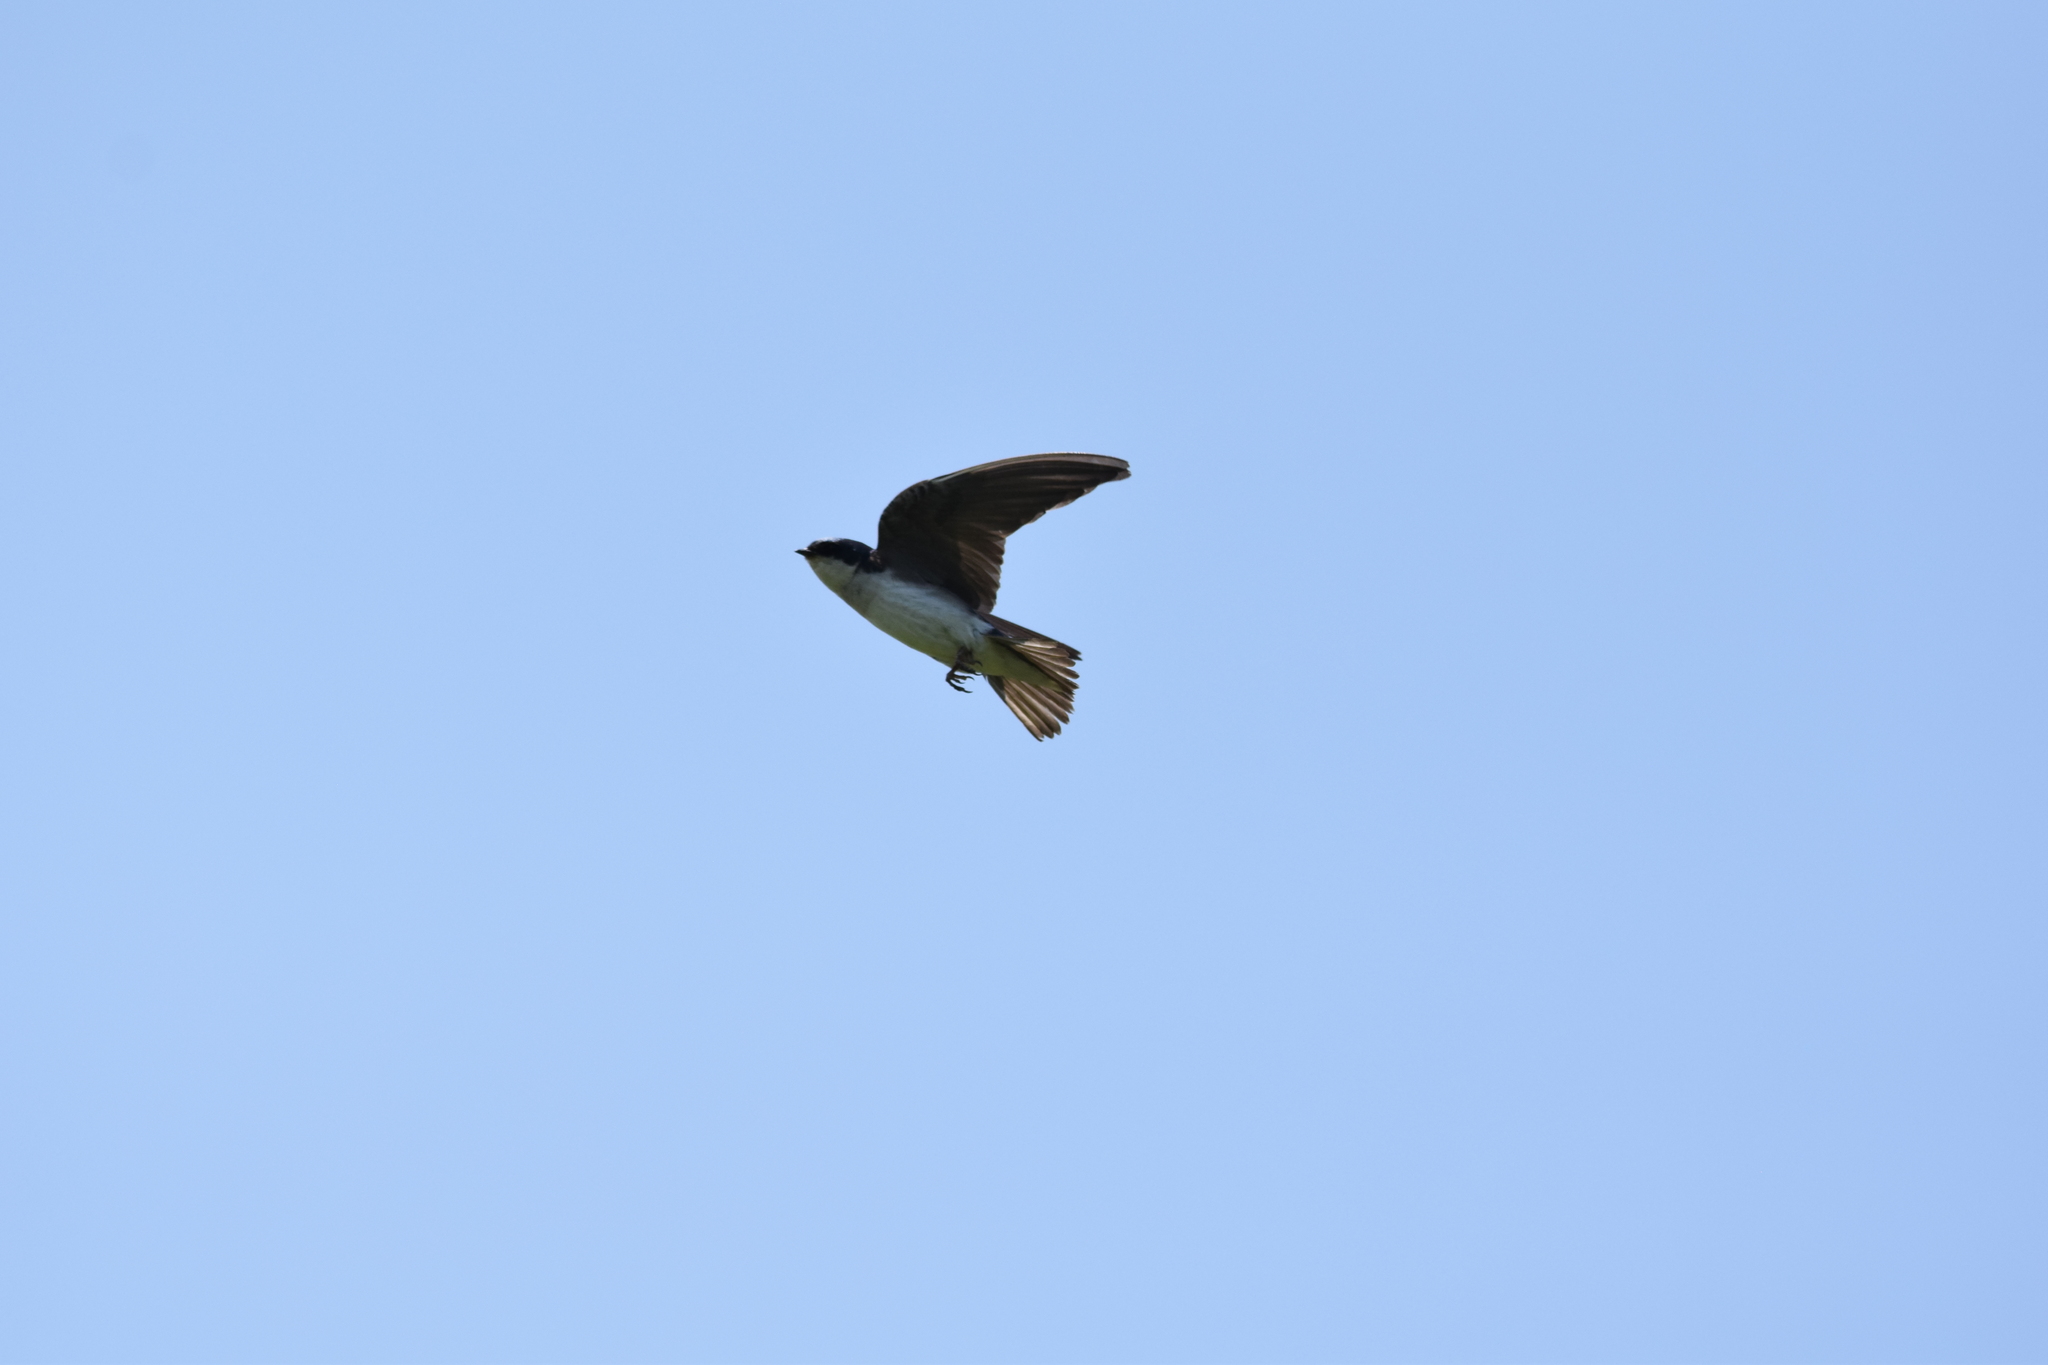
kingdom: Animalia
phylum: Chordata
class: Aves
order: Passeriformes
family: Hirundinidae
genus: Tachycineta
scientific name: Tachycineta bicolor
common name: Tree swallow
